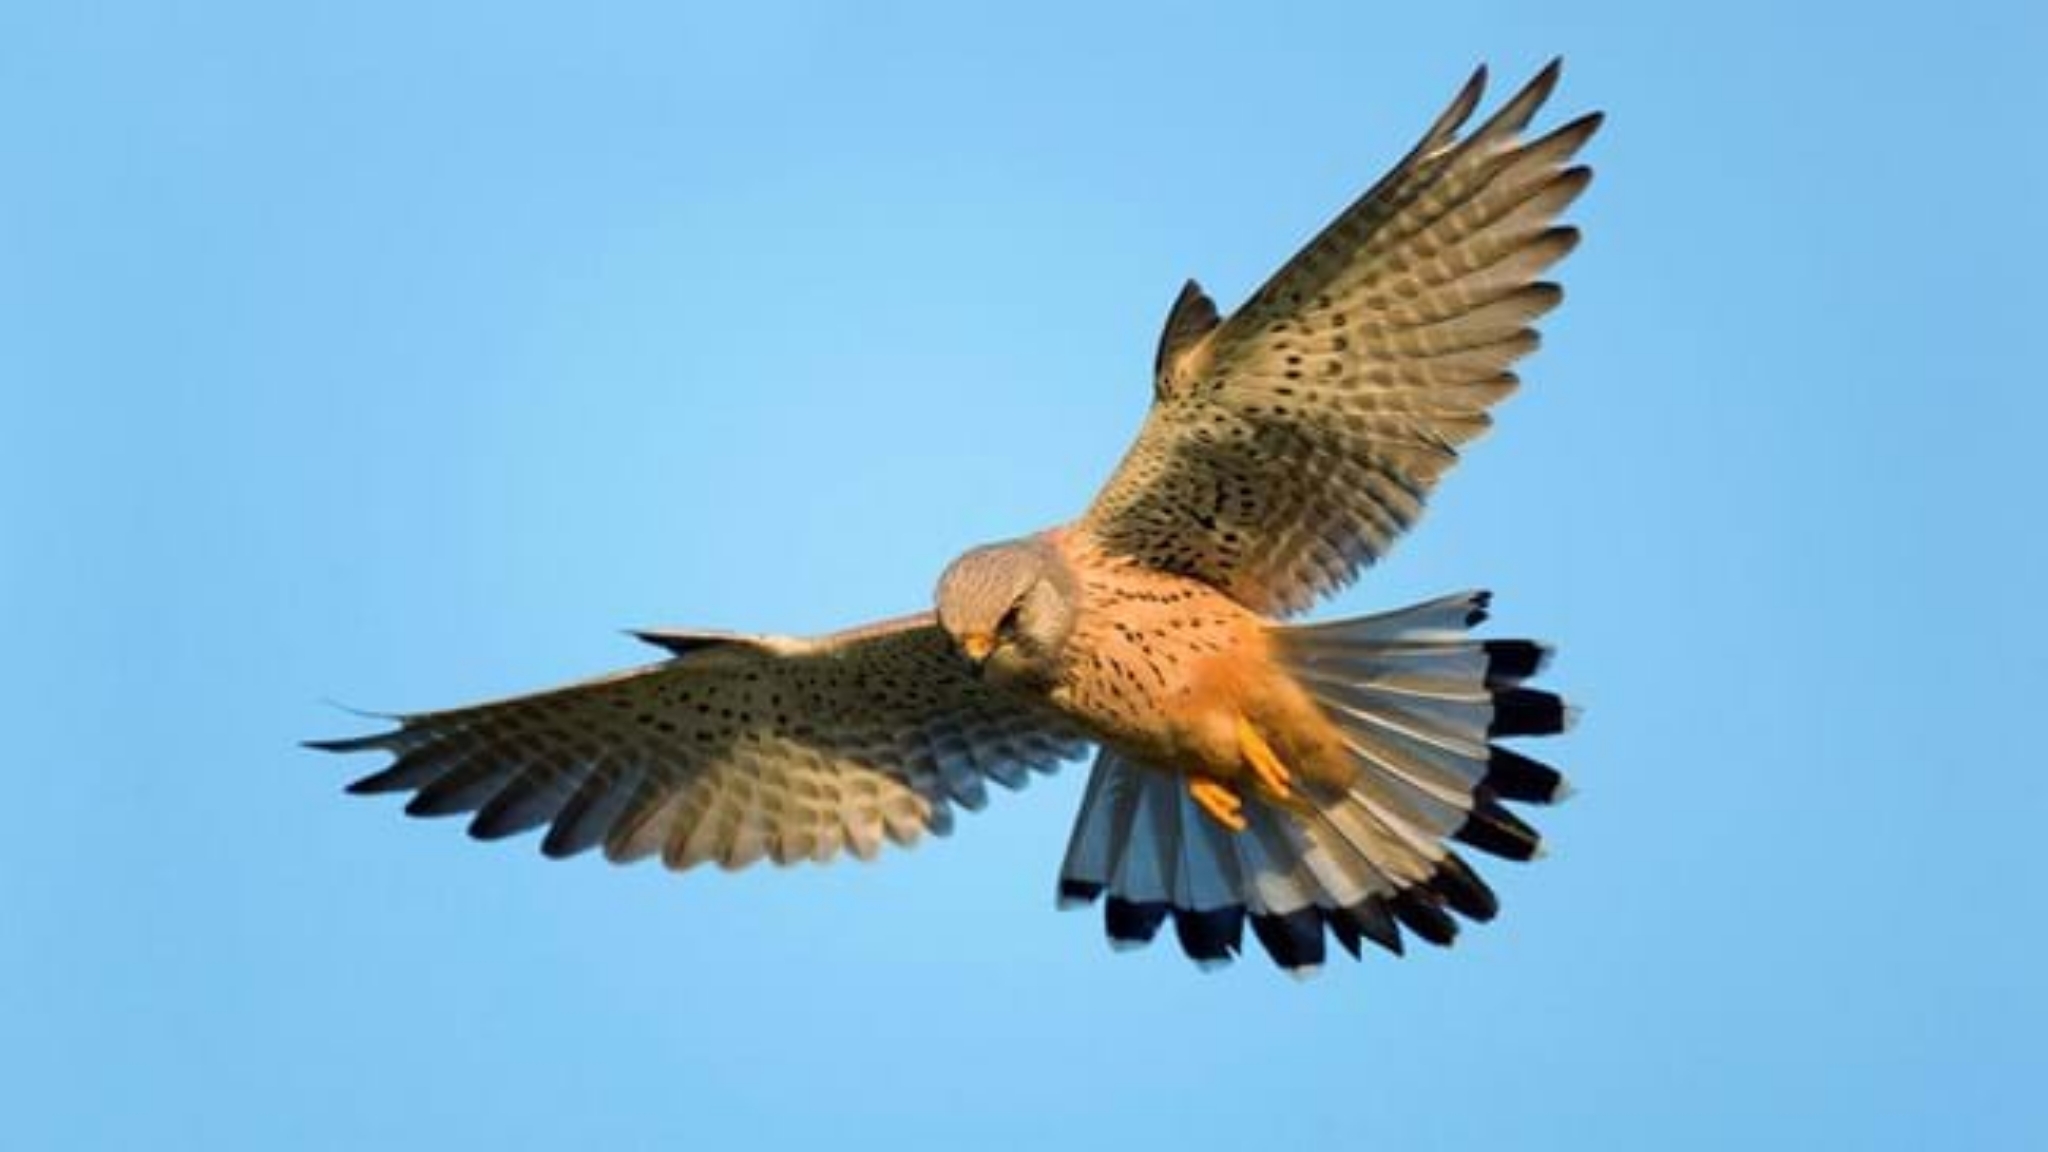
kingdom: Animalia
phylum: Chordata
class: Aves
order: Falconiformes
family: Falconidae
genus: Falco
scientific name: Falco tinnunculus
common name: Common kestrel
